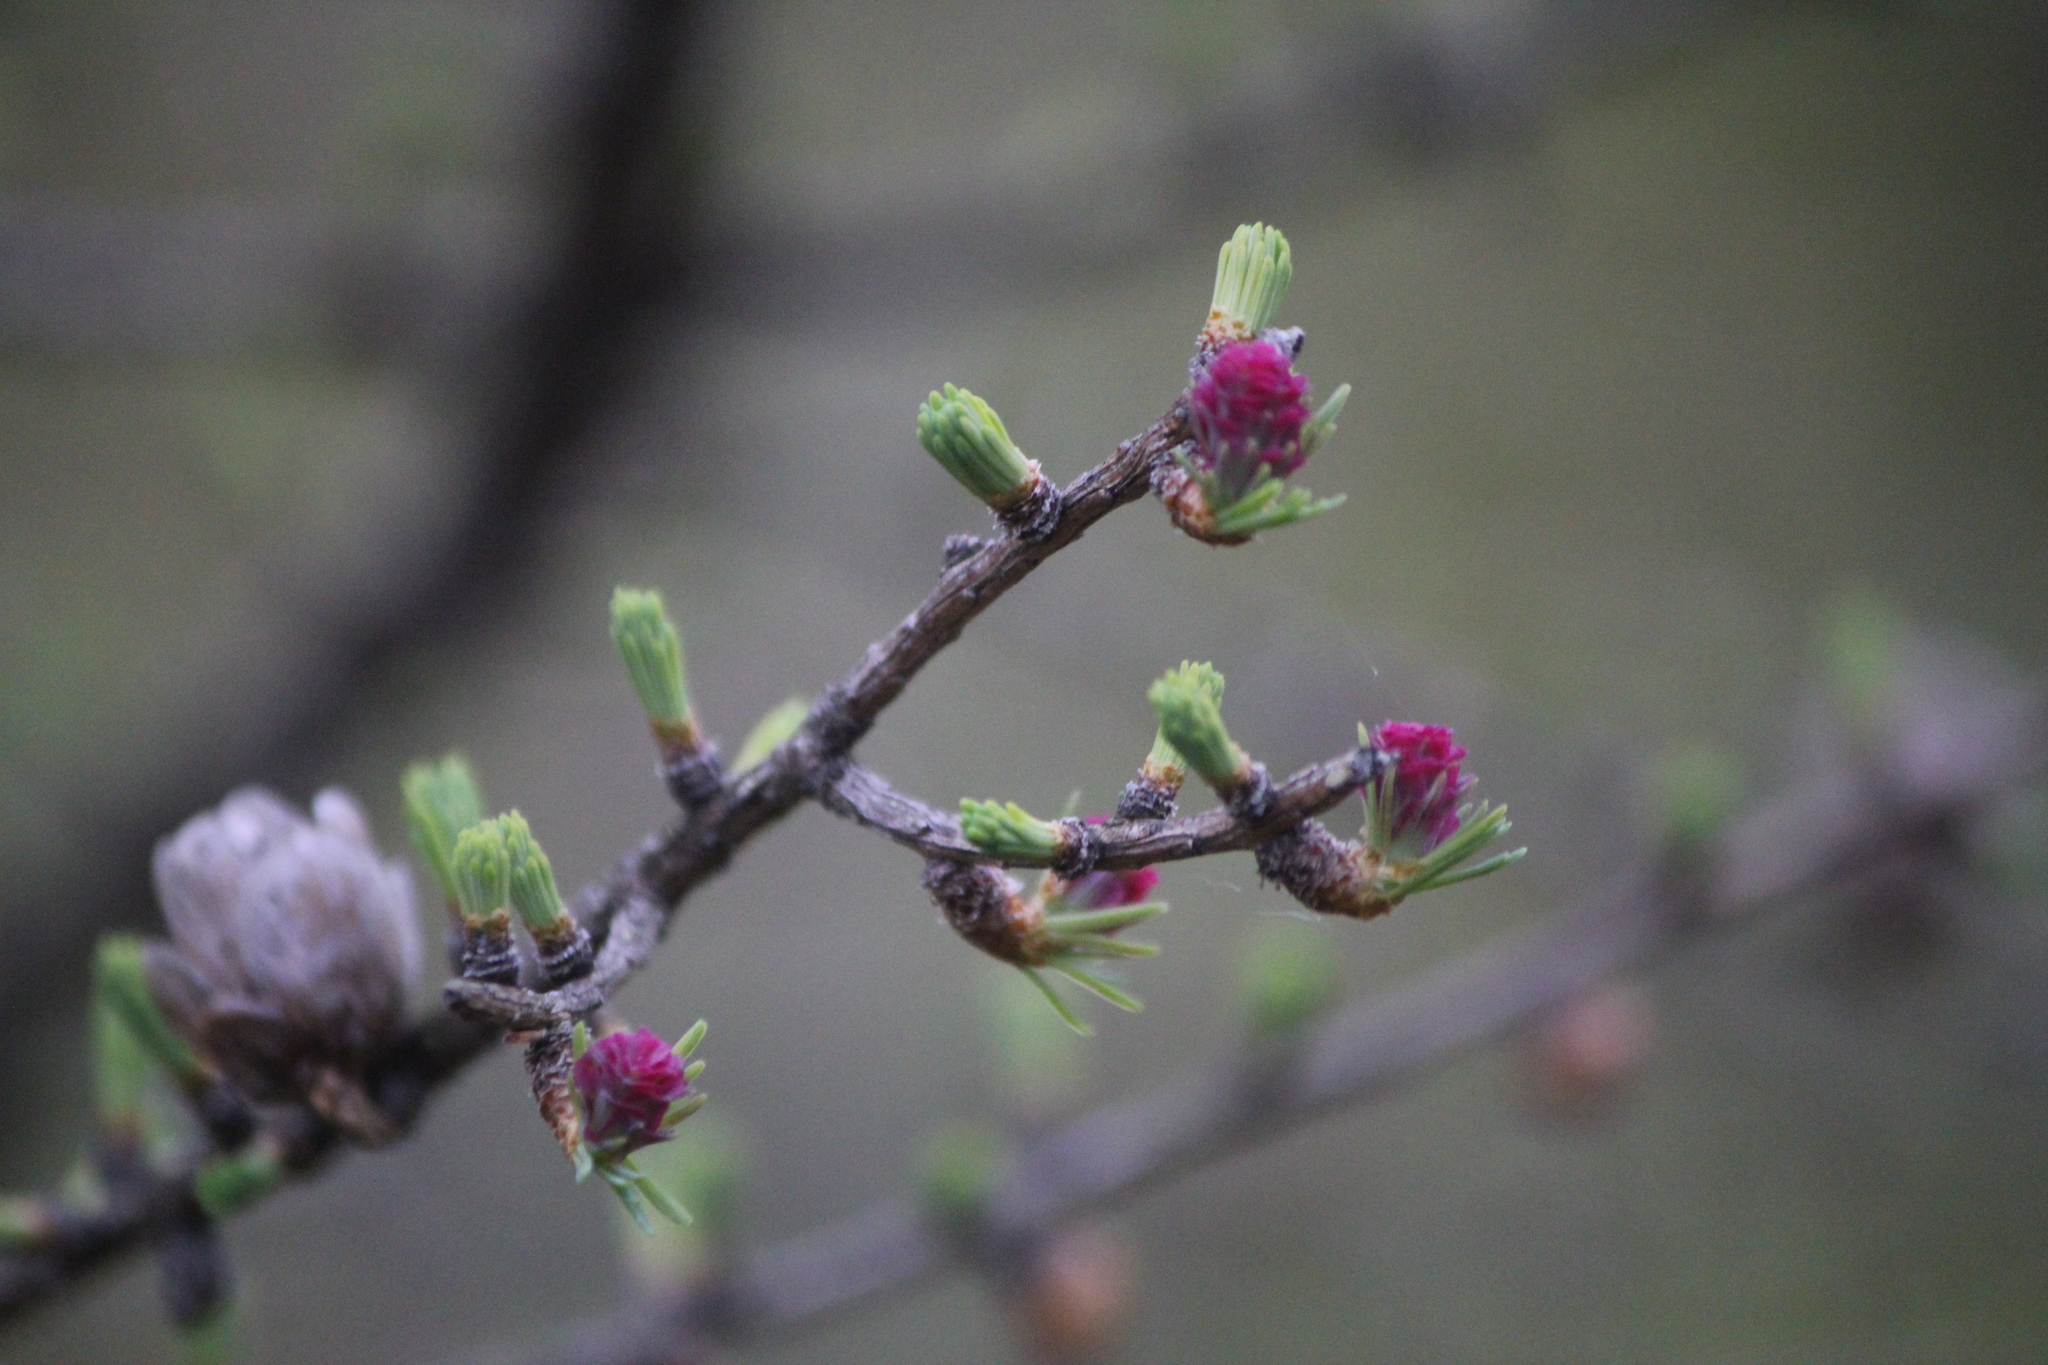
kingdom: Plantae
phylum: Tracheophyta
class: Pinopsida
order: Pinales
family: Pinaceae
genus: Larix
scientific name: Larix laricina
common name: American larch
